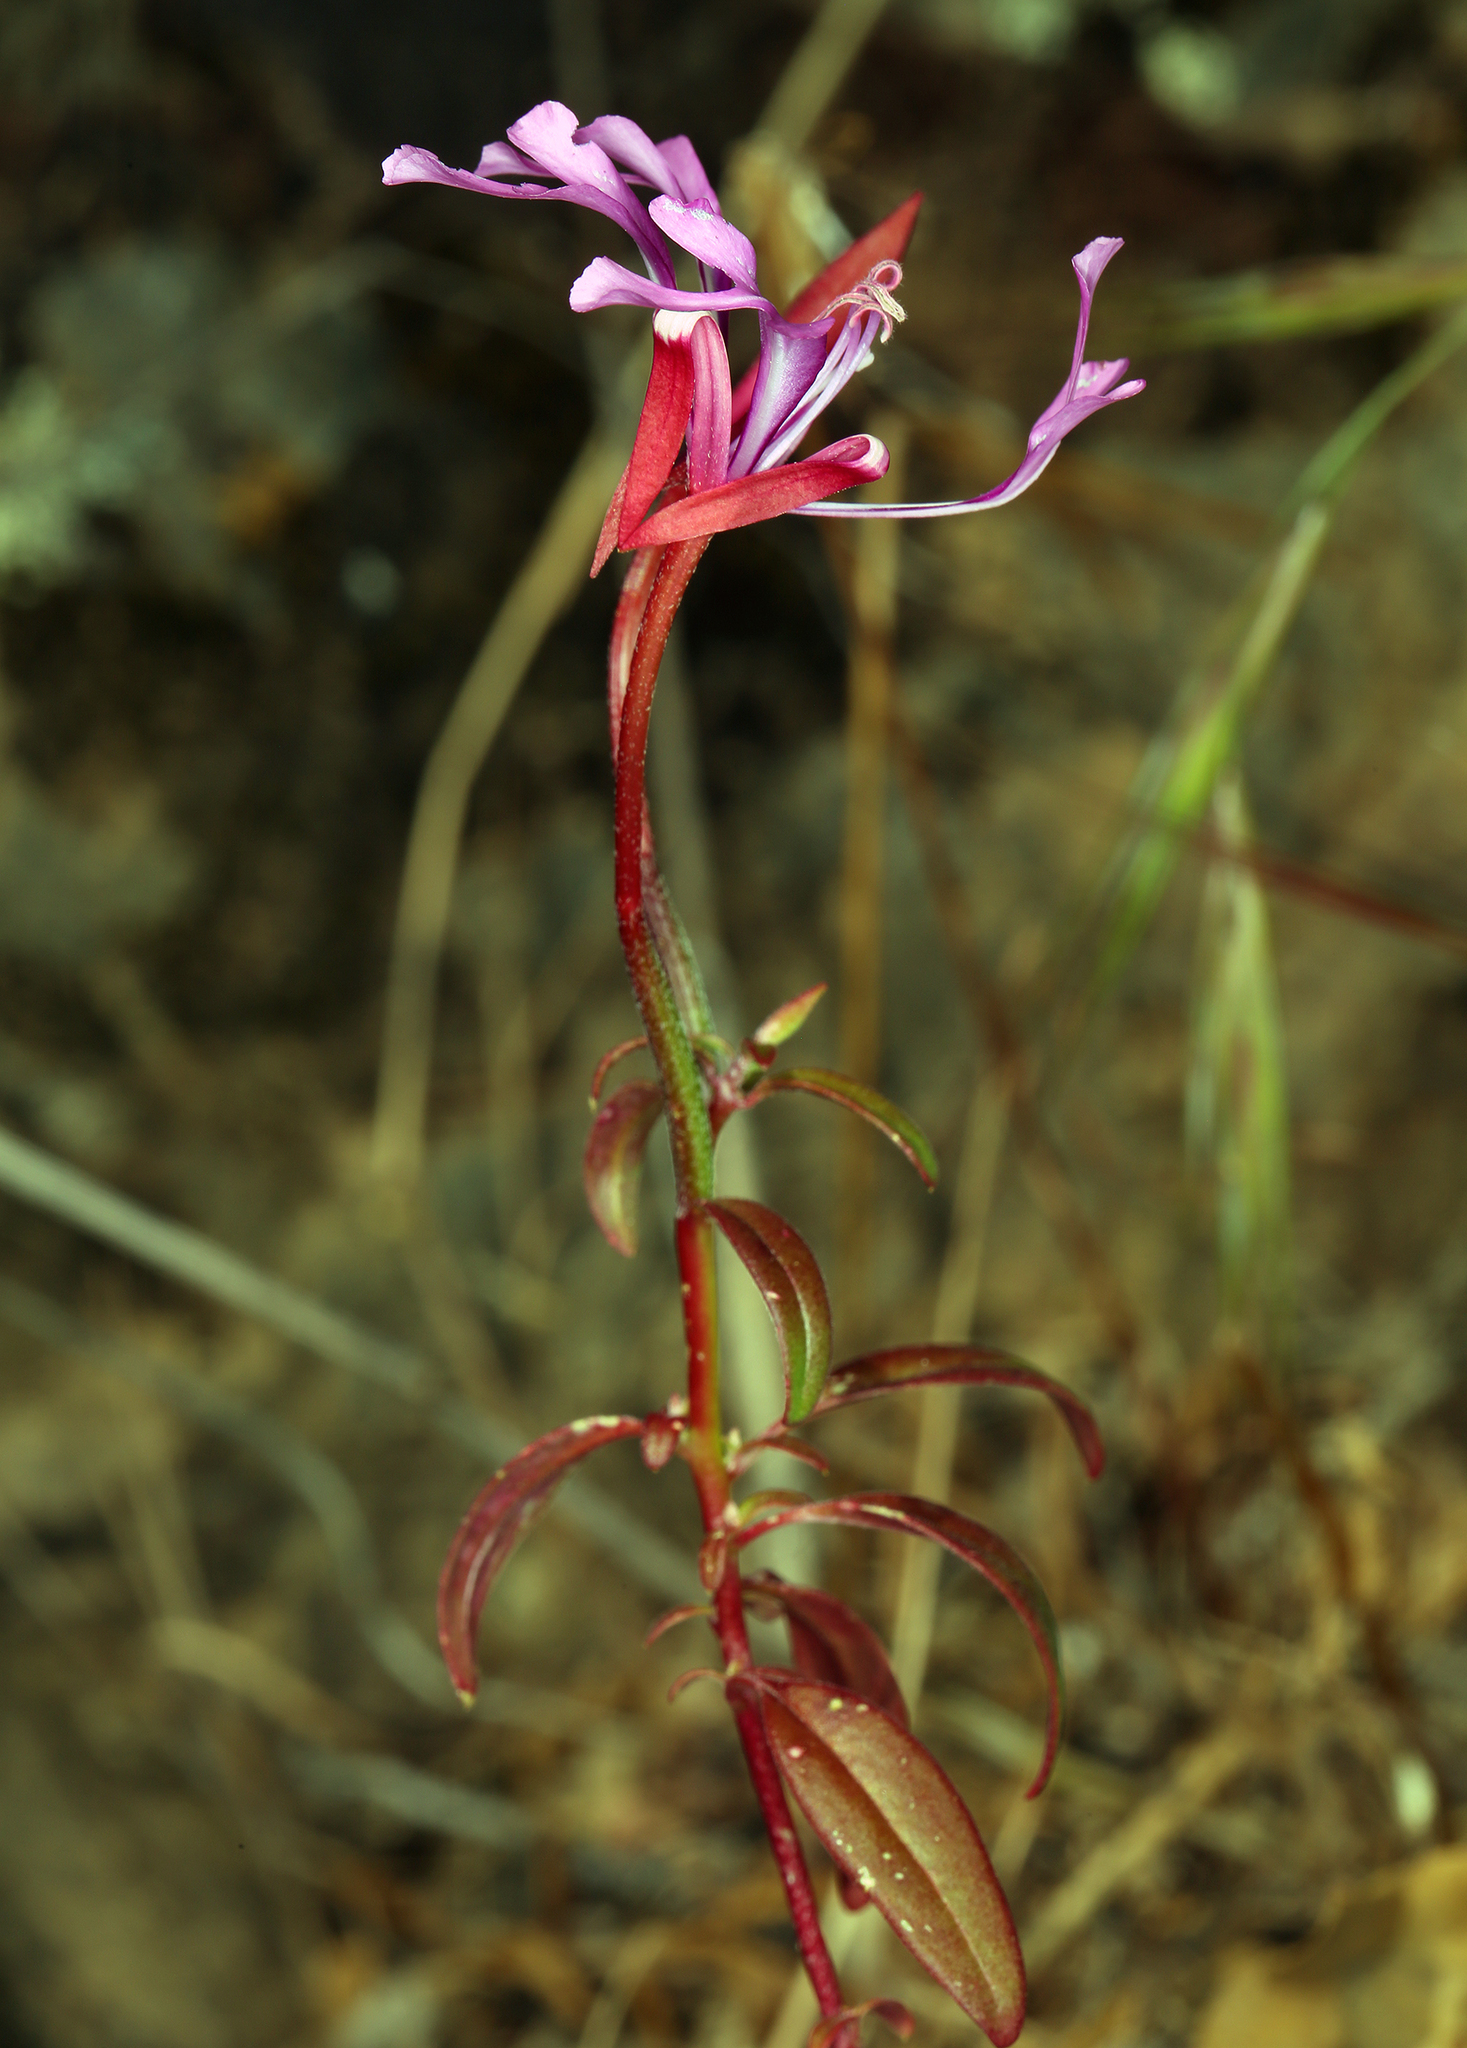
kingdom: Plantae
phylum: Tracheophyta
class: Magnoliopsida
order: Myrtales
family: Onagraceae
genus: Clarkia
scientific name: Clarkia concinna
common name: Red-ribbons
